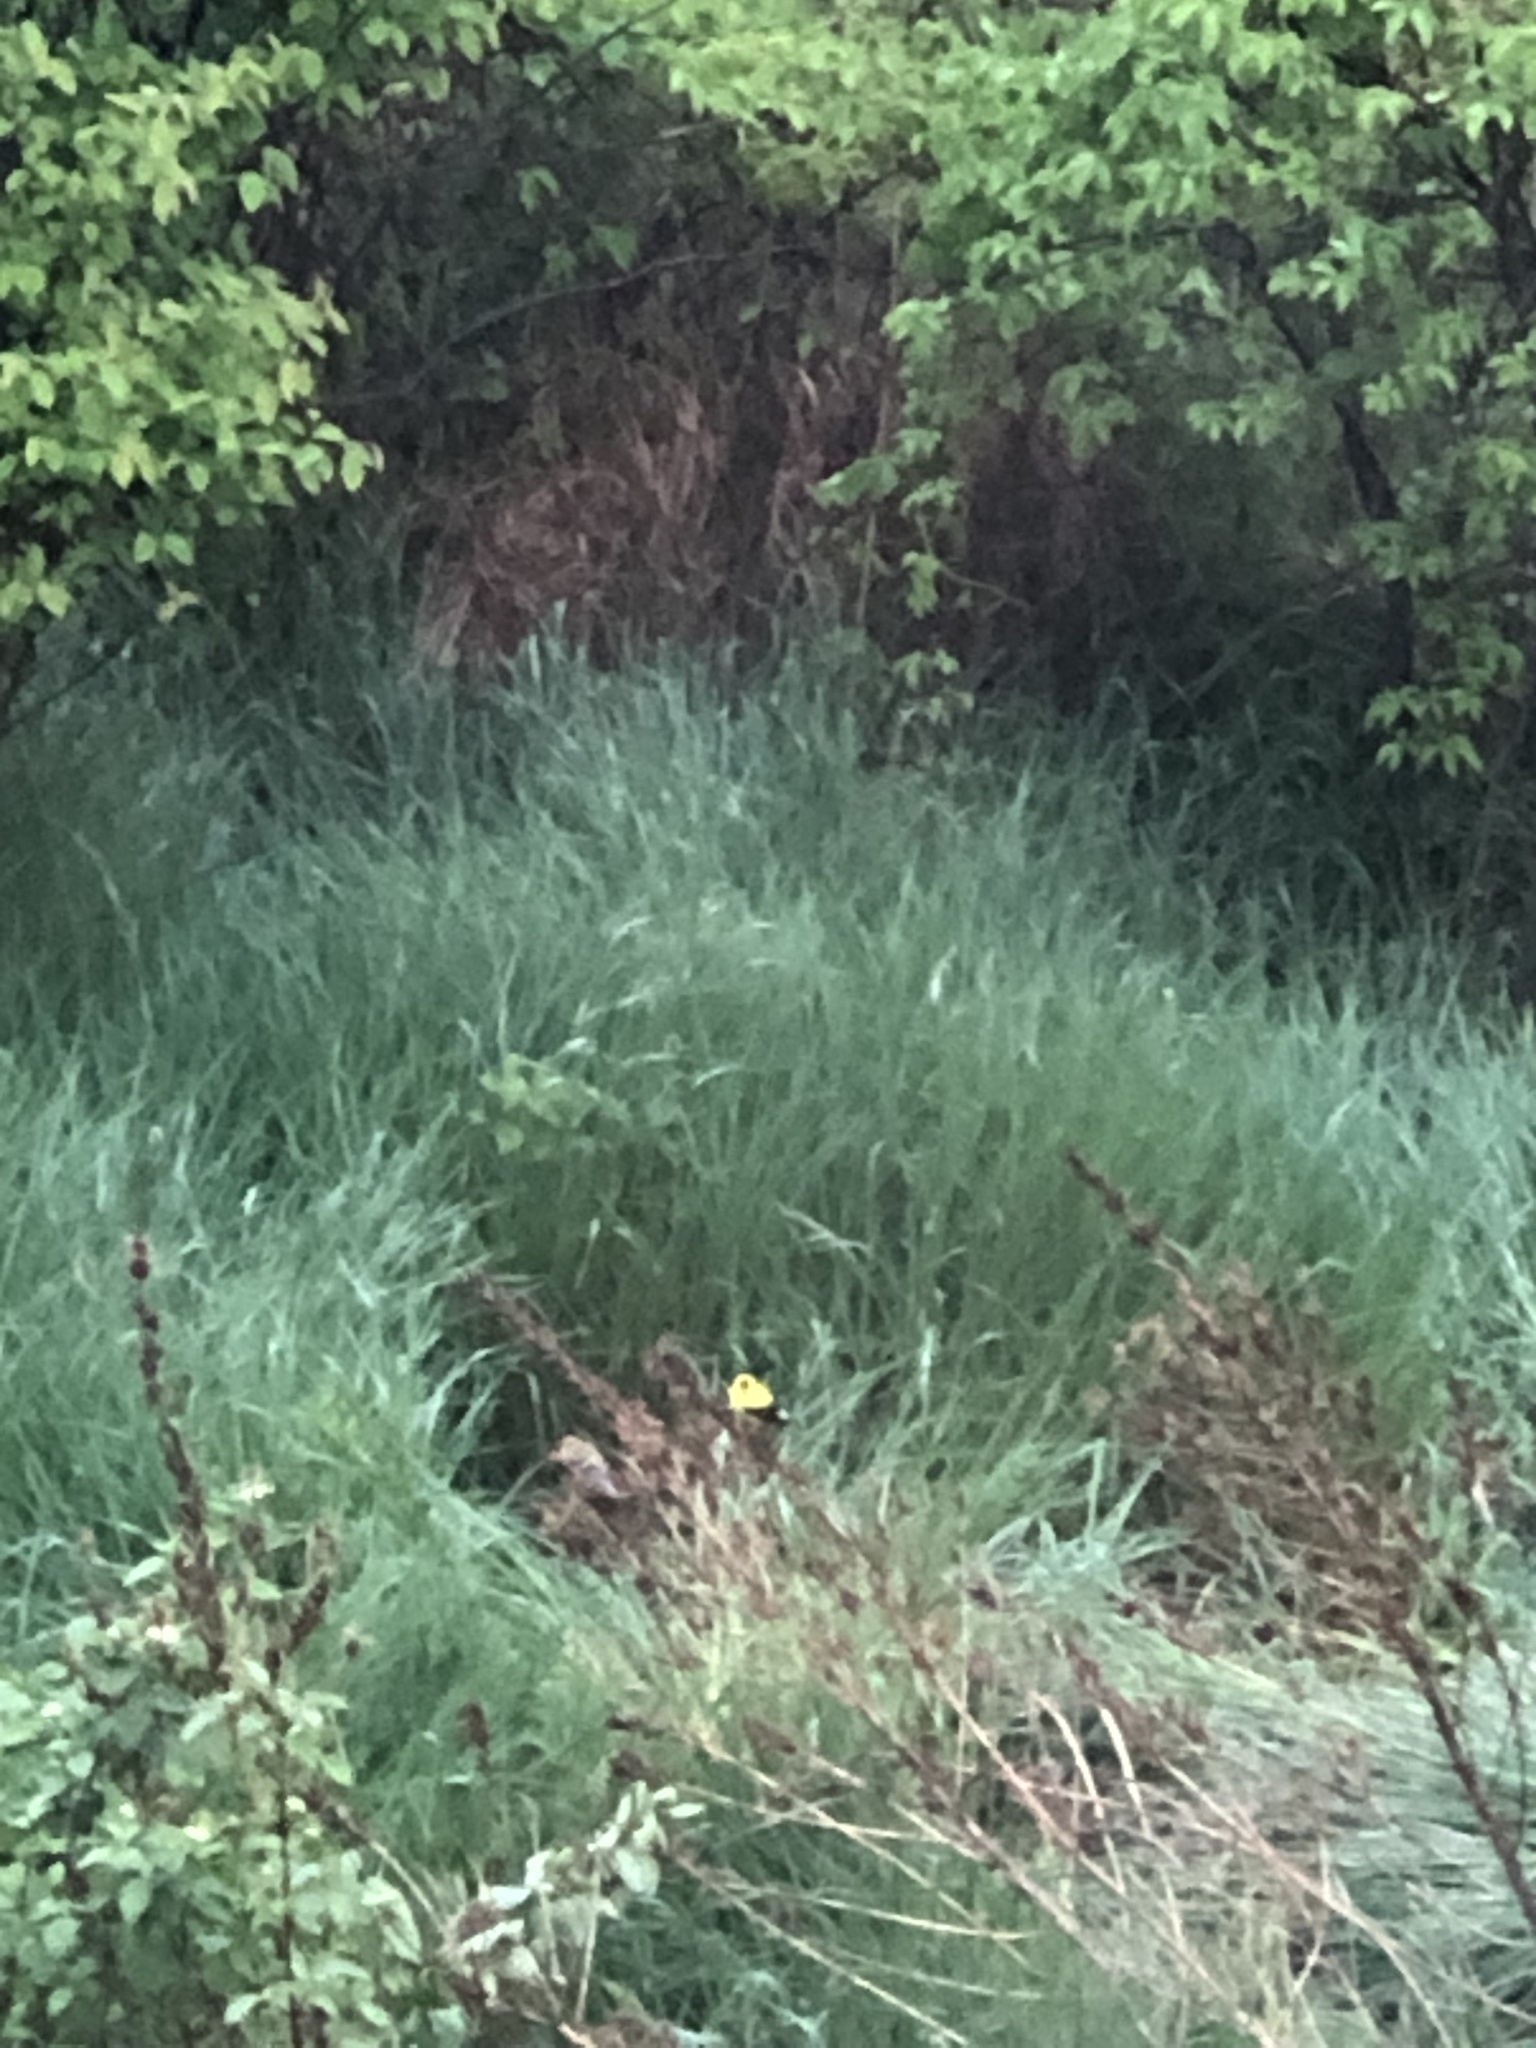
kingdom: Animalia
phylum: Chordata
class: Aves
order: Passeriformes
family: Fringillidae
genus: Spinus
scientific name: Spinus tristis
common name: American goldfinch
